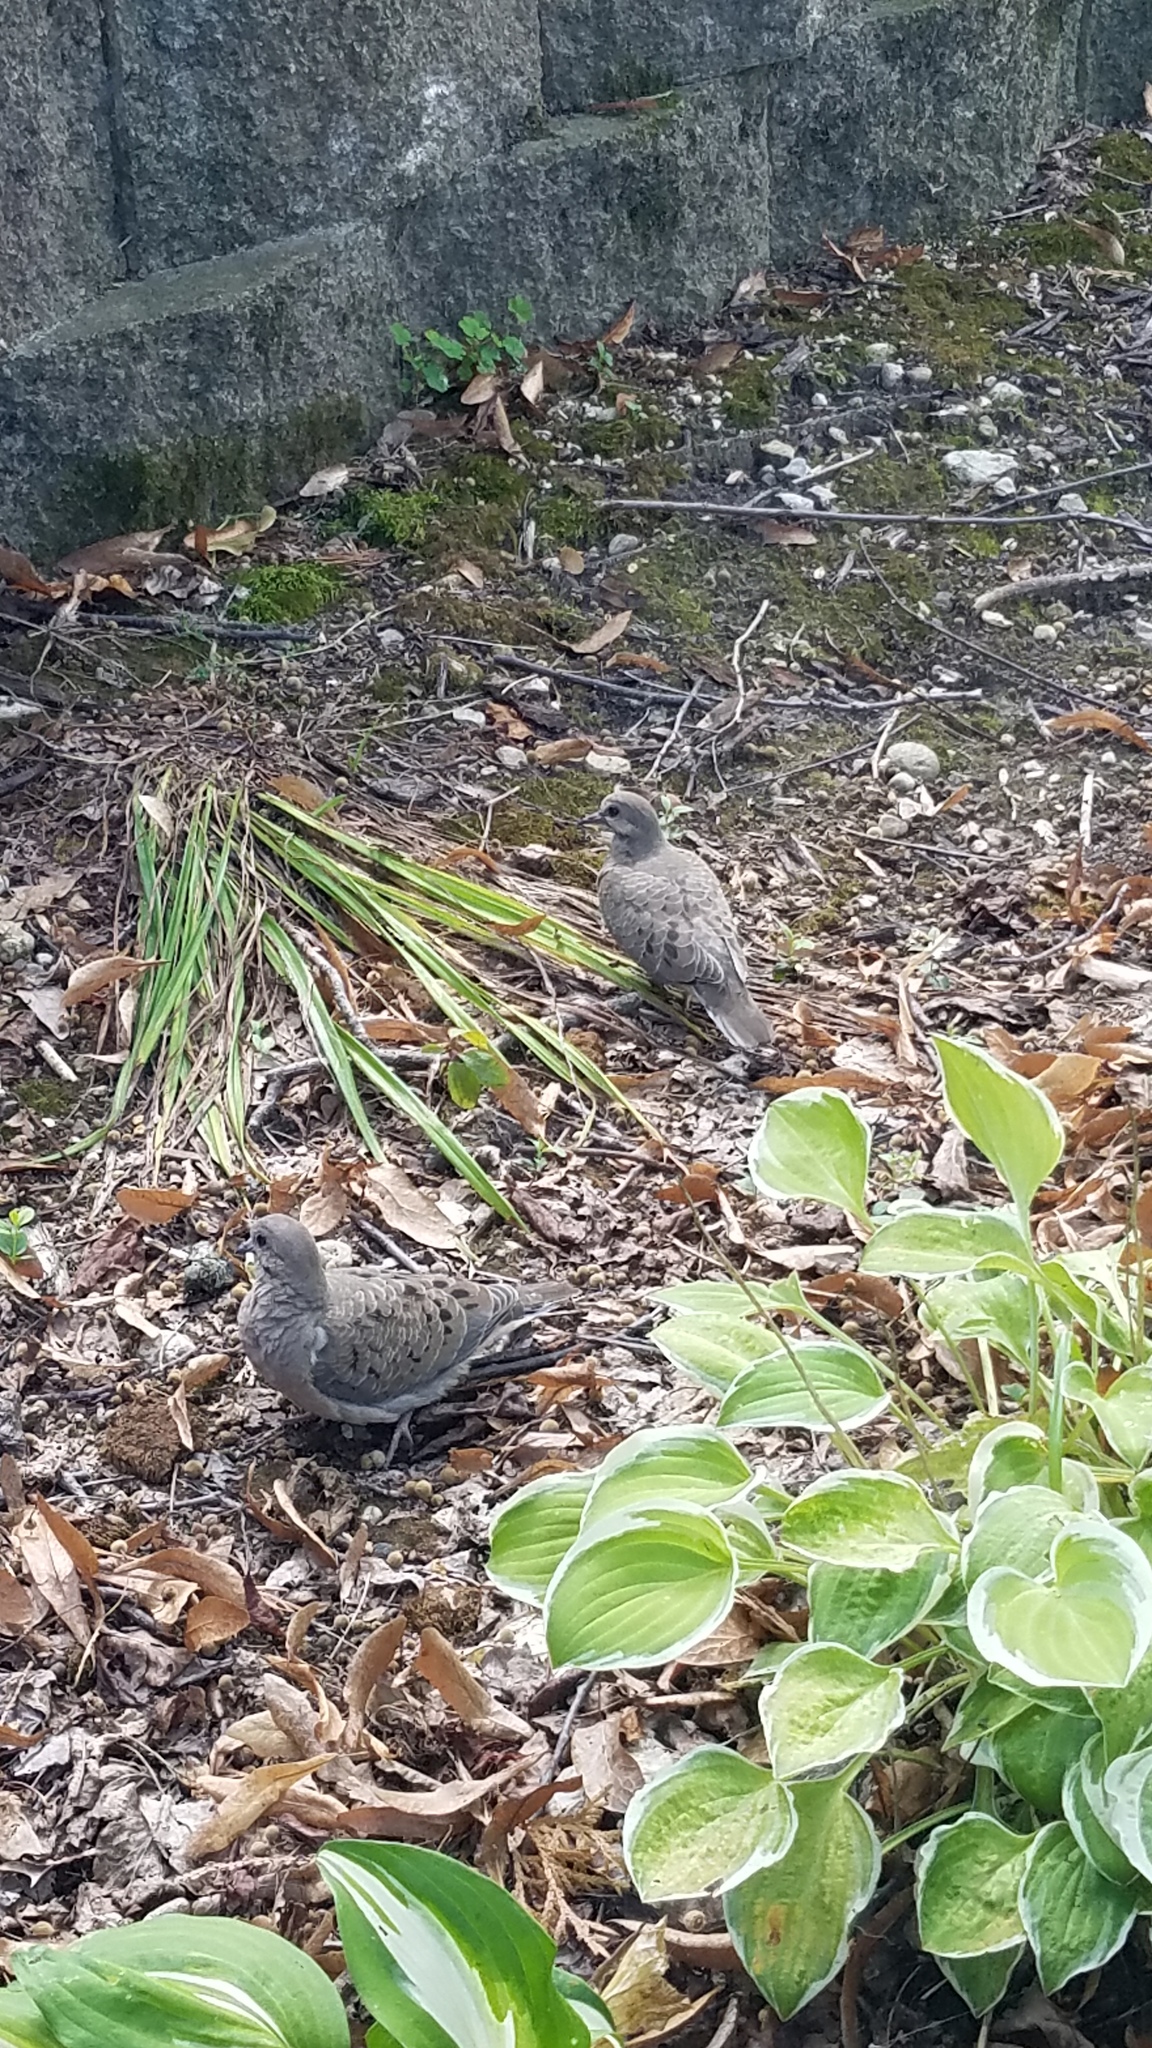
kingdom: Animalia
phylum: Chordata
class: Aves
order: Columbiformes
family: Columbidae
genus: Zenaida
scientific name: Zenaida macroura
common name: Mourning dove
